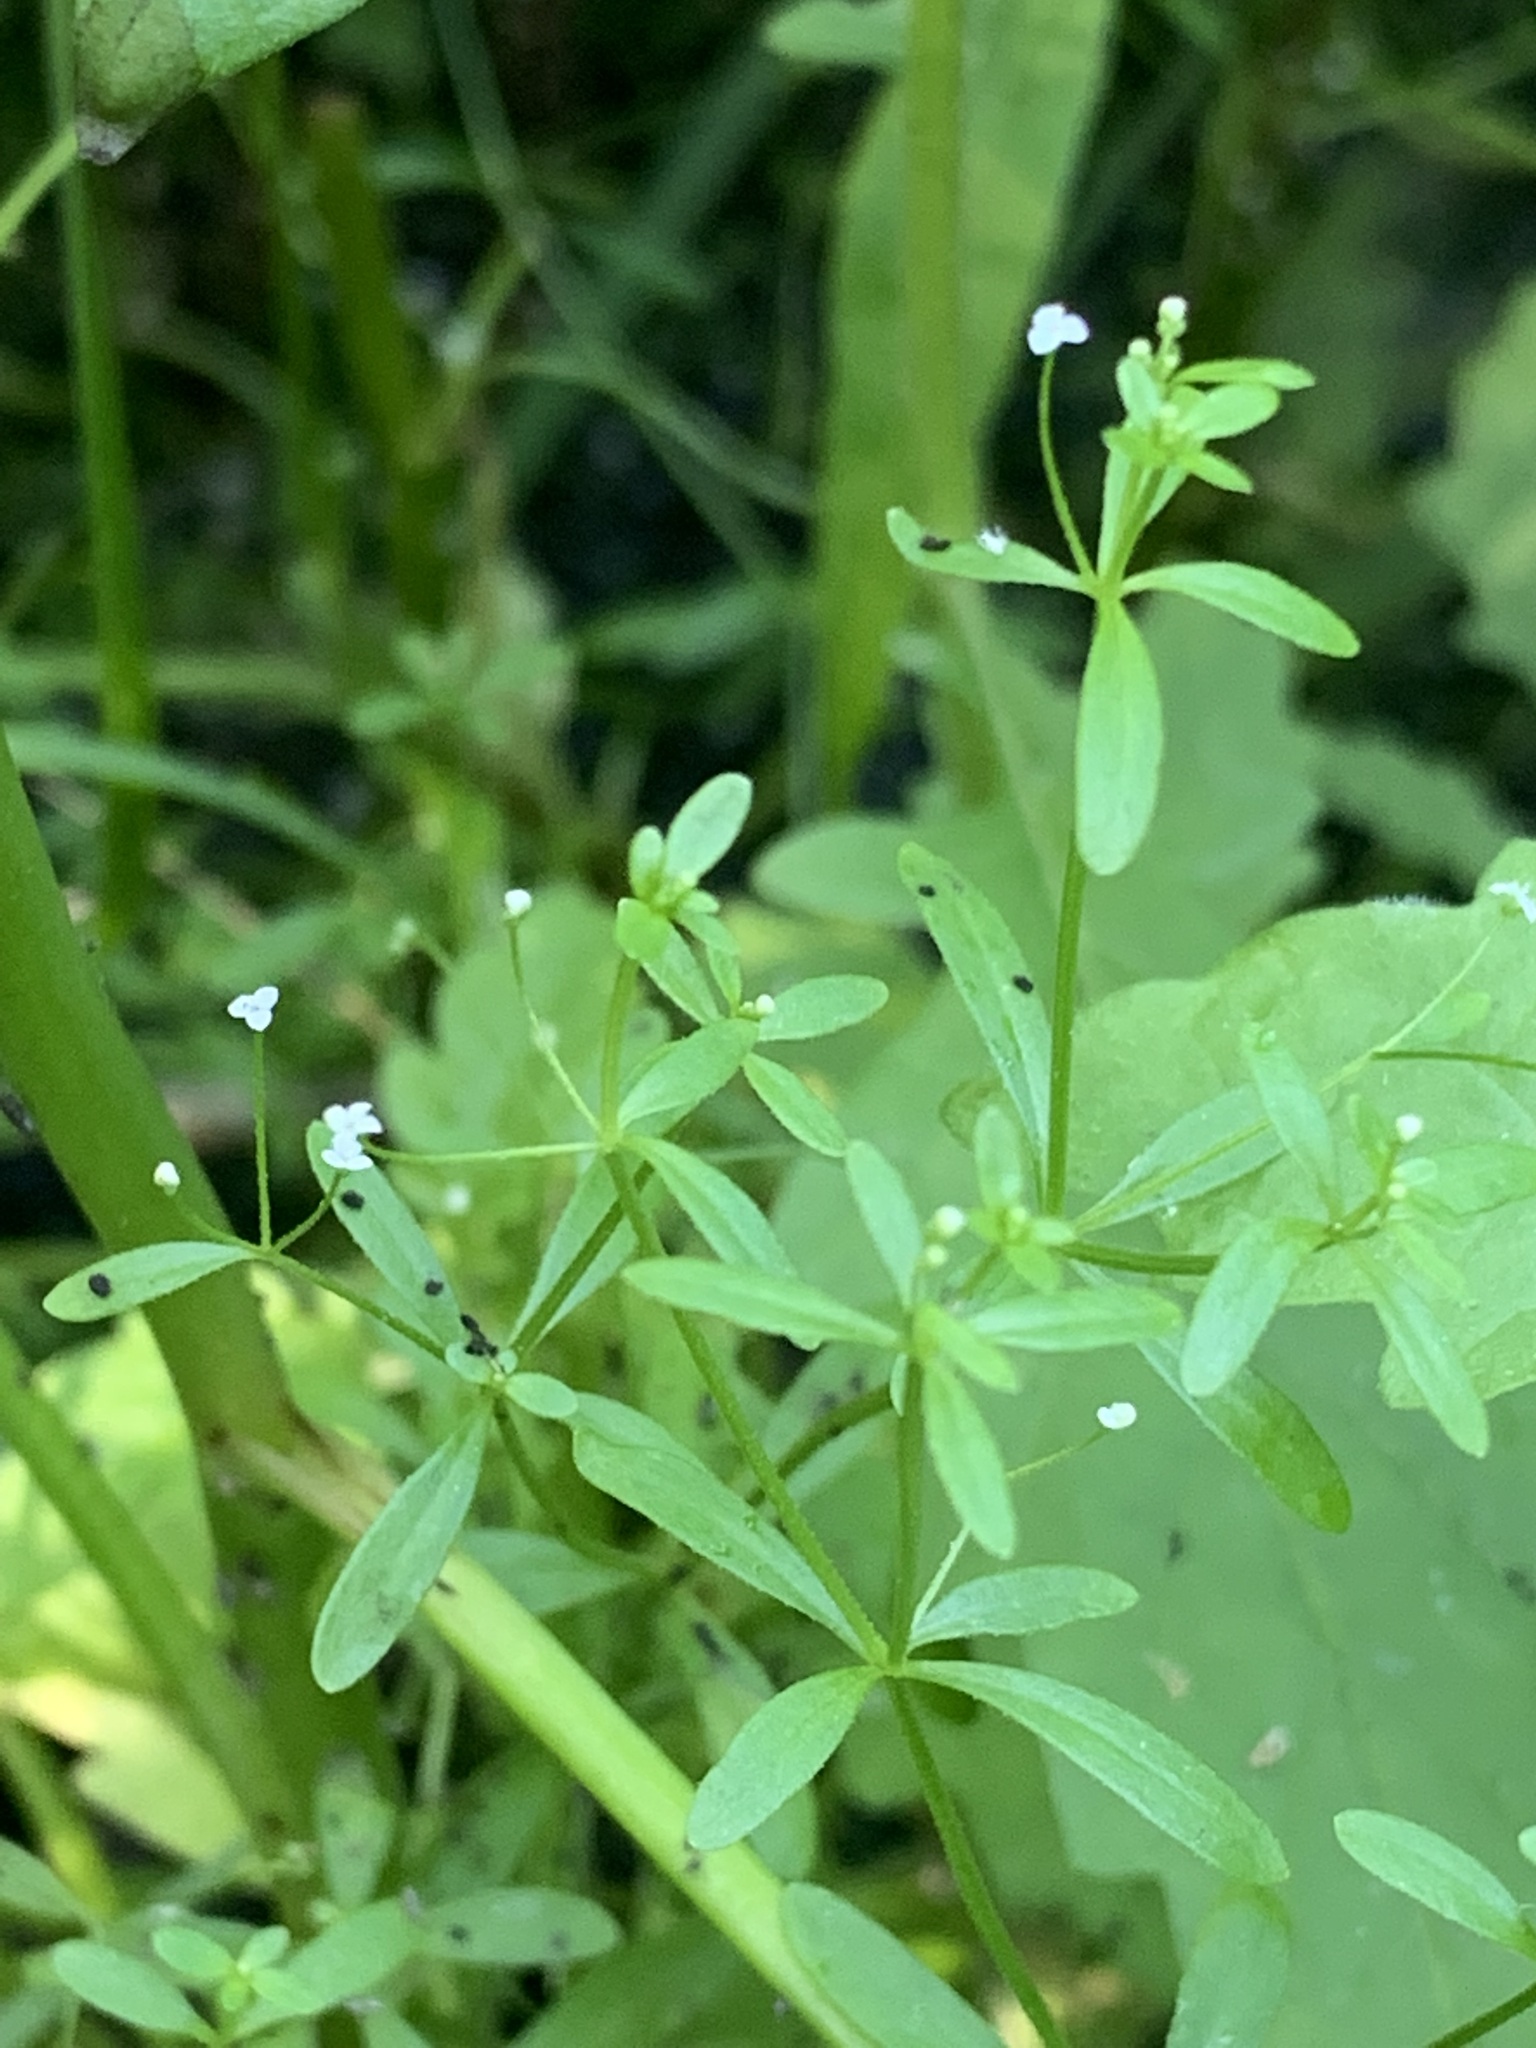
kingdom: Plantae
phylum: Tracheophyta
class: Magnoliopsida
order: Gentianales
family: Rubiaceae
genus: Galium
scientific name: Galium trifidum
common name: Small bedstraw
